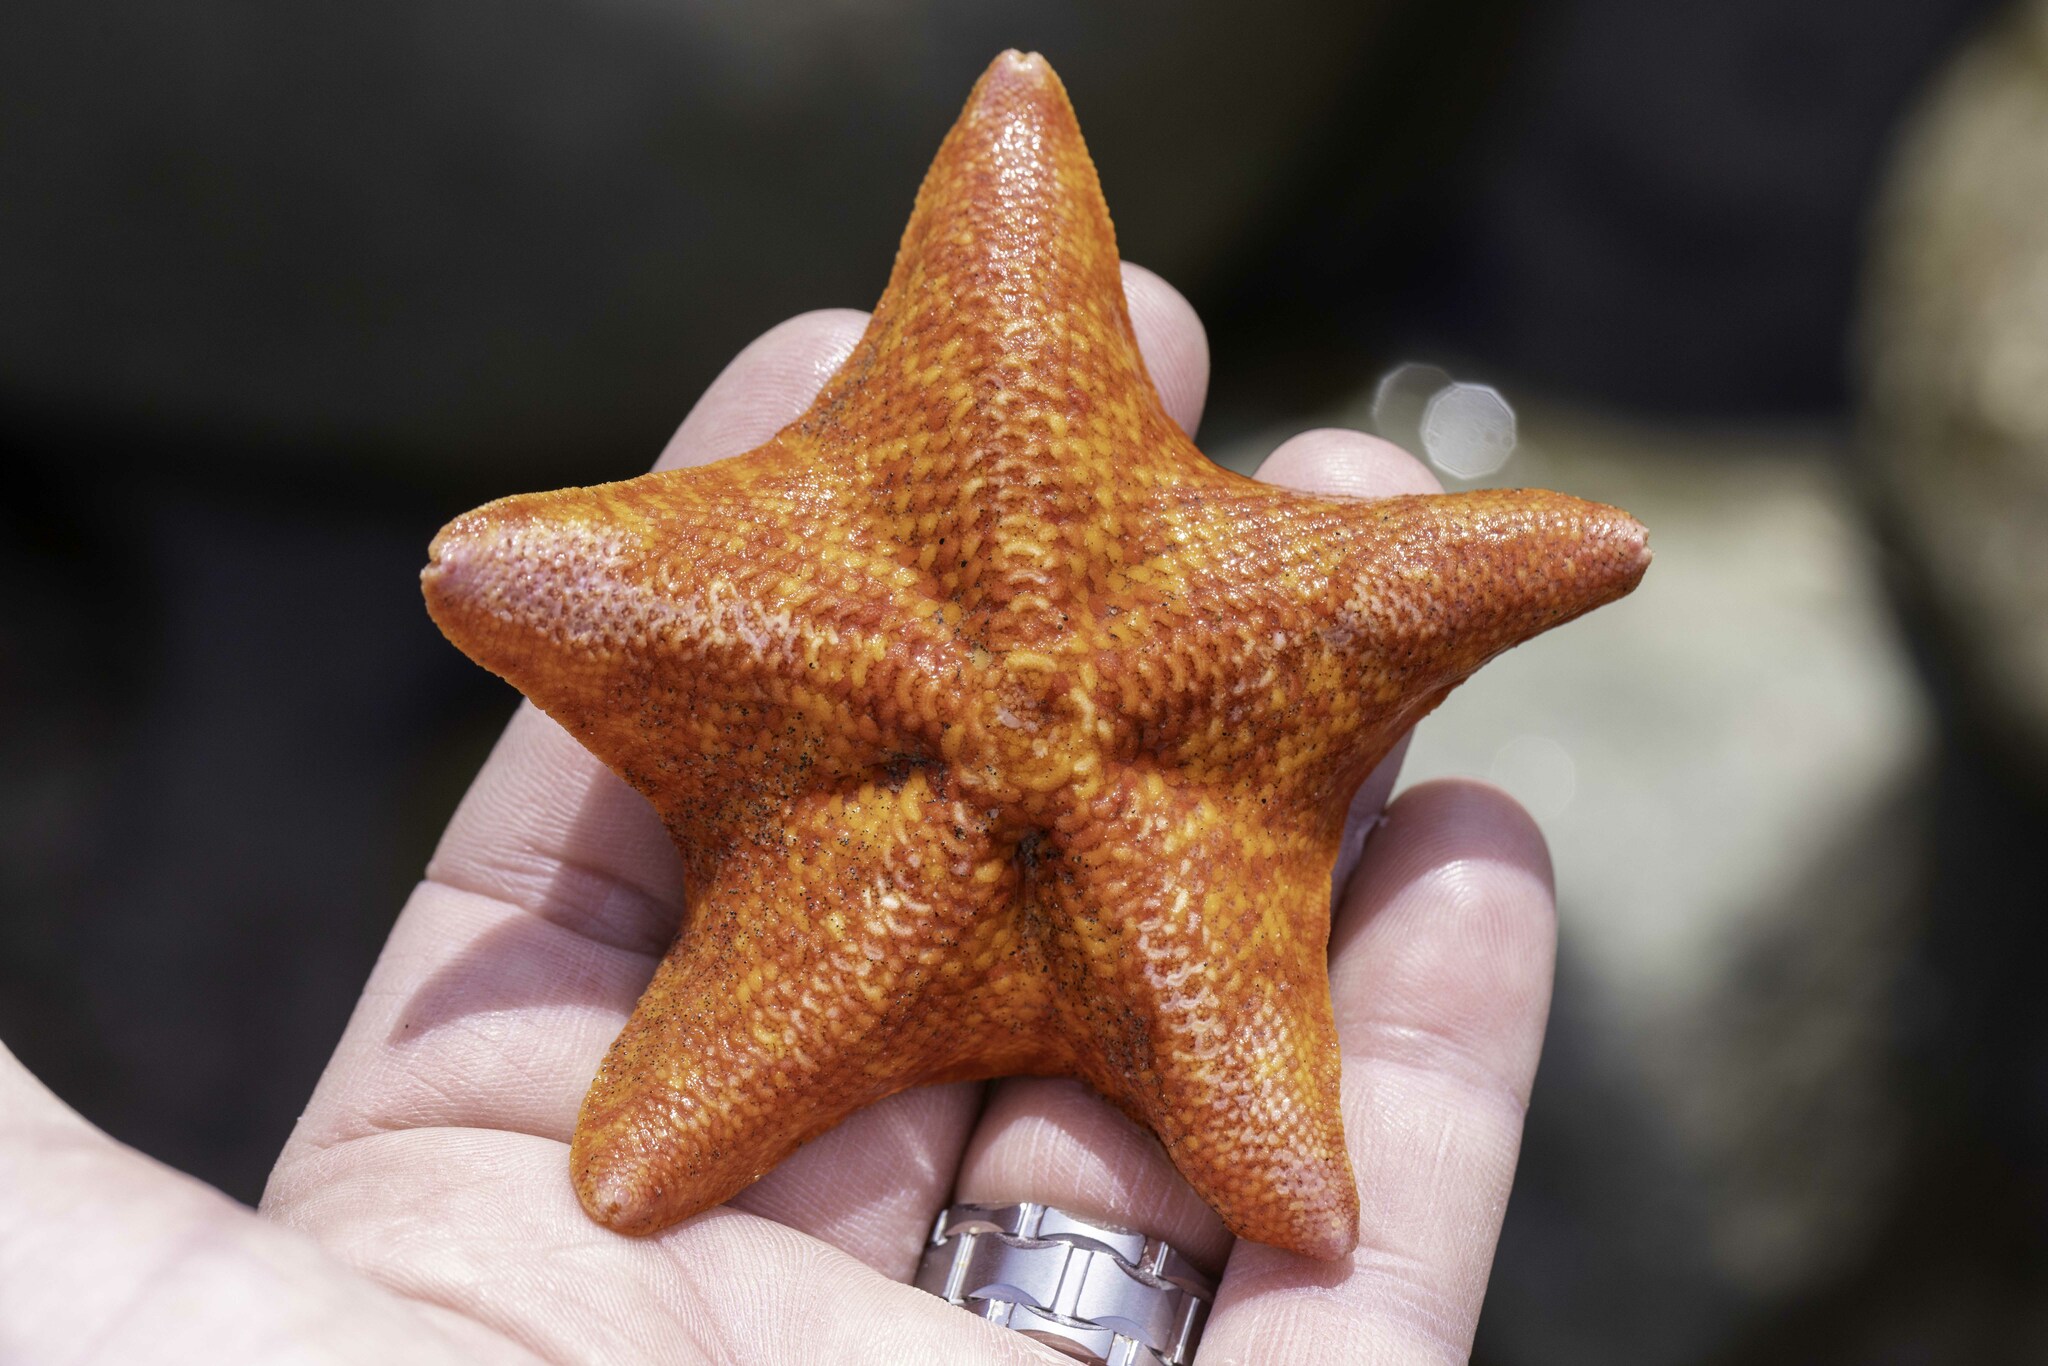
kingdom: Animalia
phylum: Echinodermata
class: Asteroidea
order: Valvatida
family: Asterinidae
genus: Patiria
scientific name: Patiria miniata
